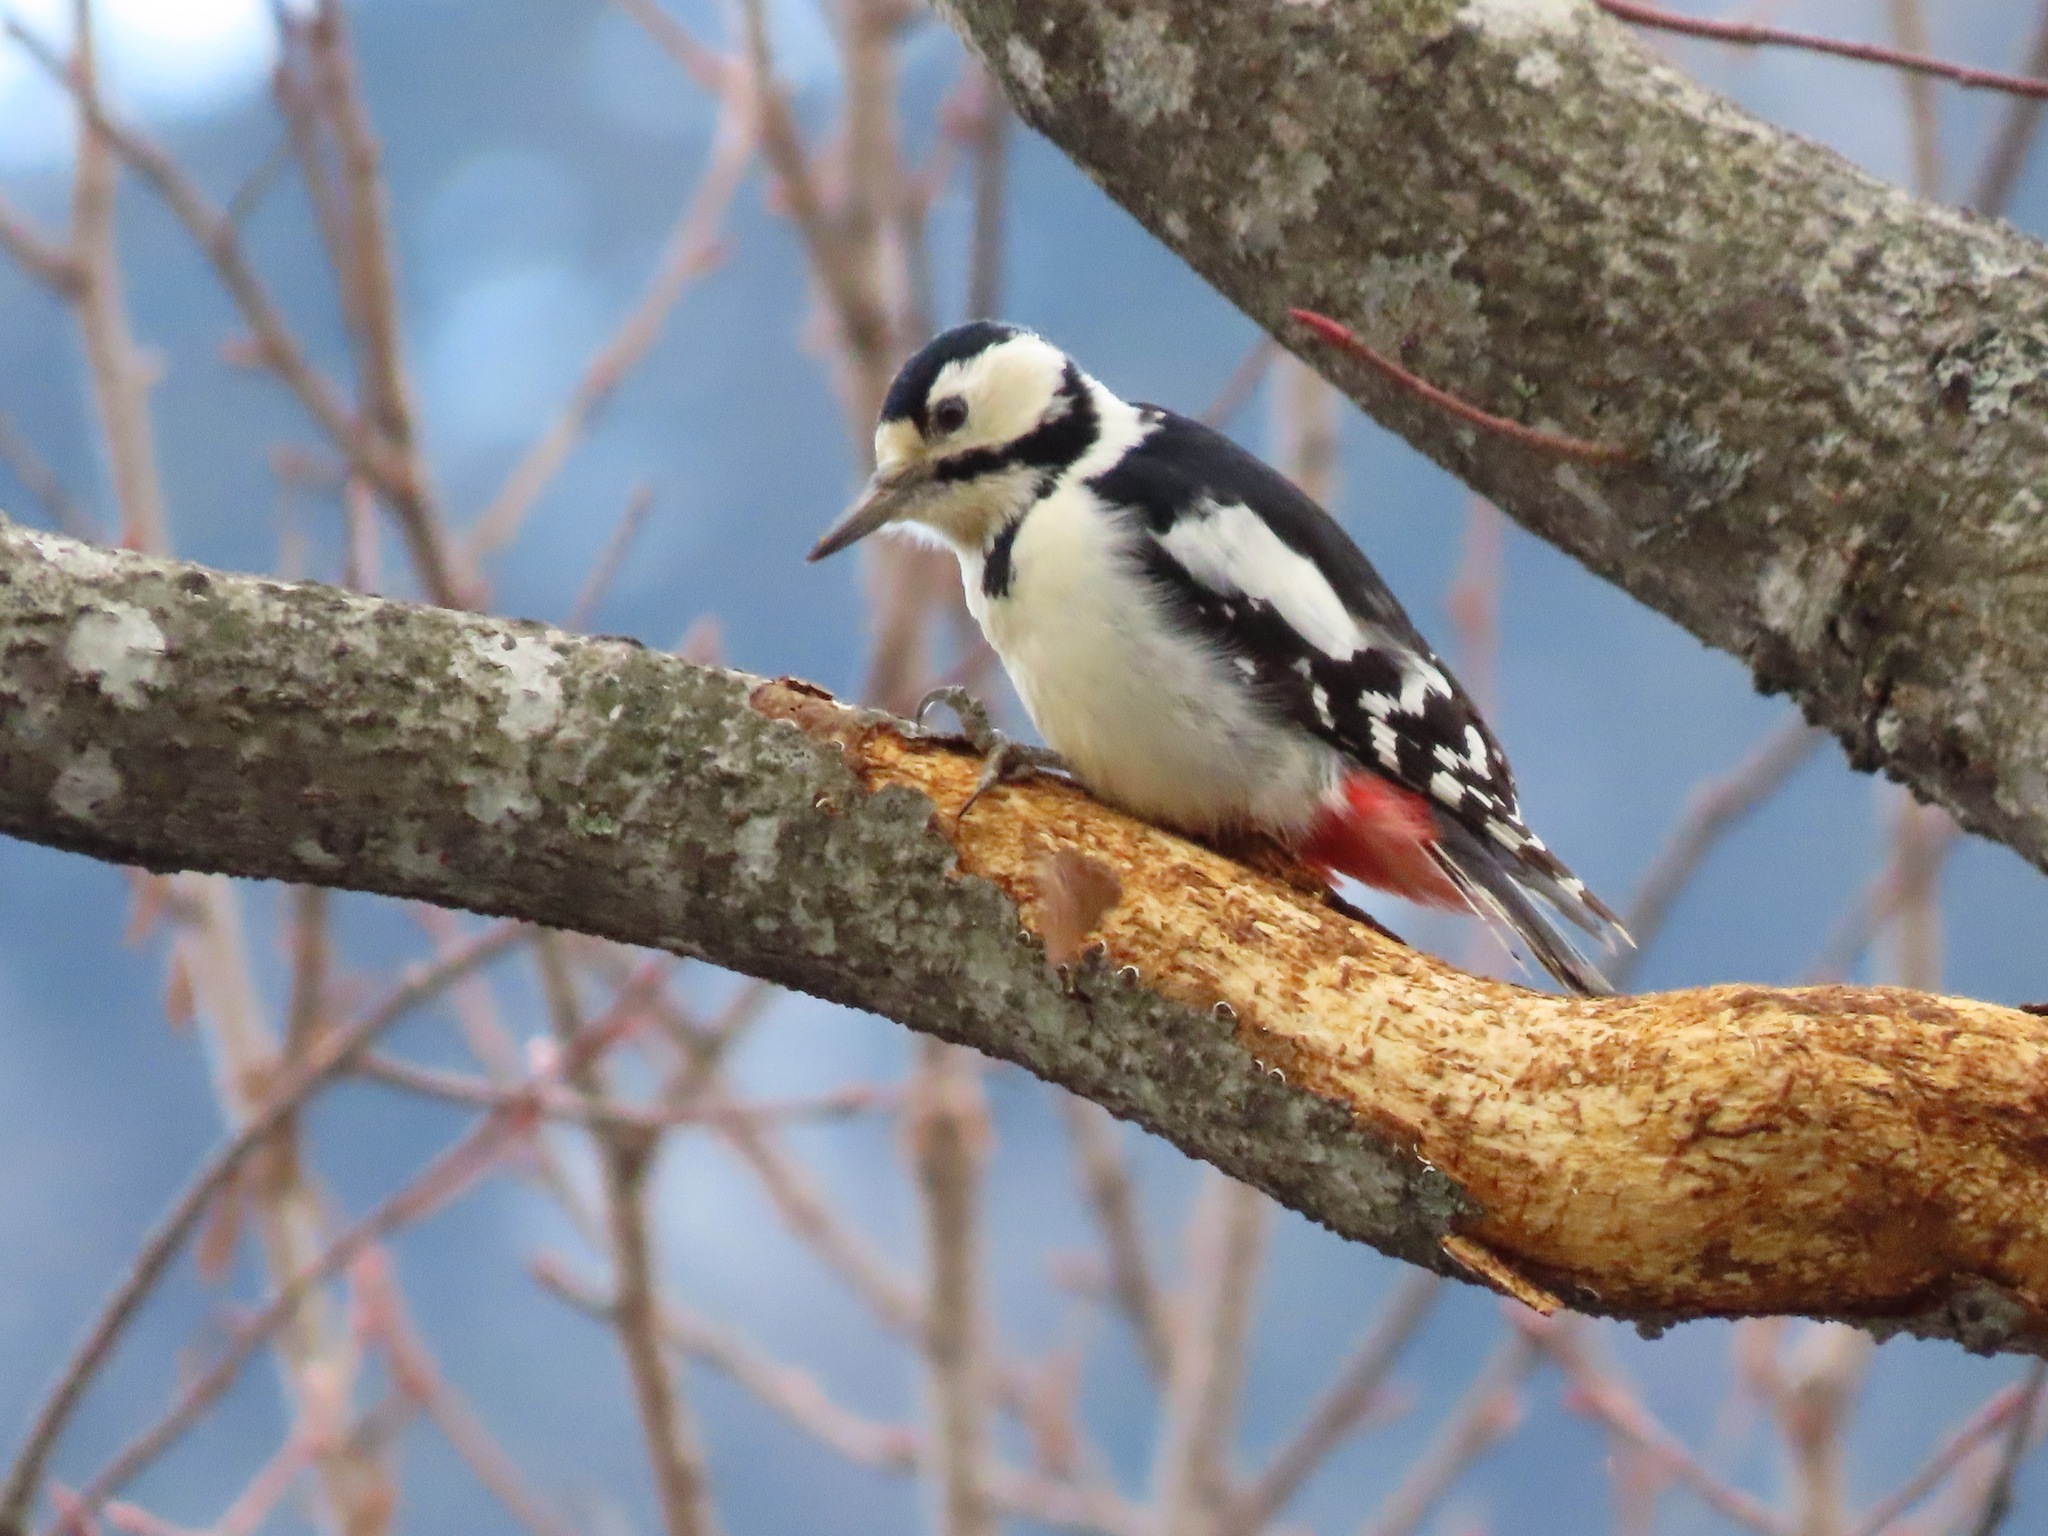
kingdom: Animalia
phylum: Chordata
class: Aves
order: Piciformes
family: Picidae
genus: Dendrocopos
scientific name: Dendrocopos major
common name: Great spotted woodpecker
